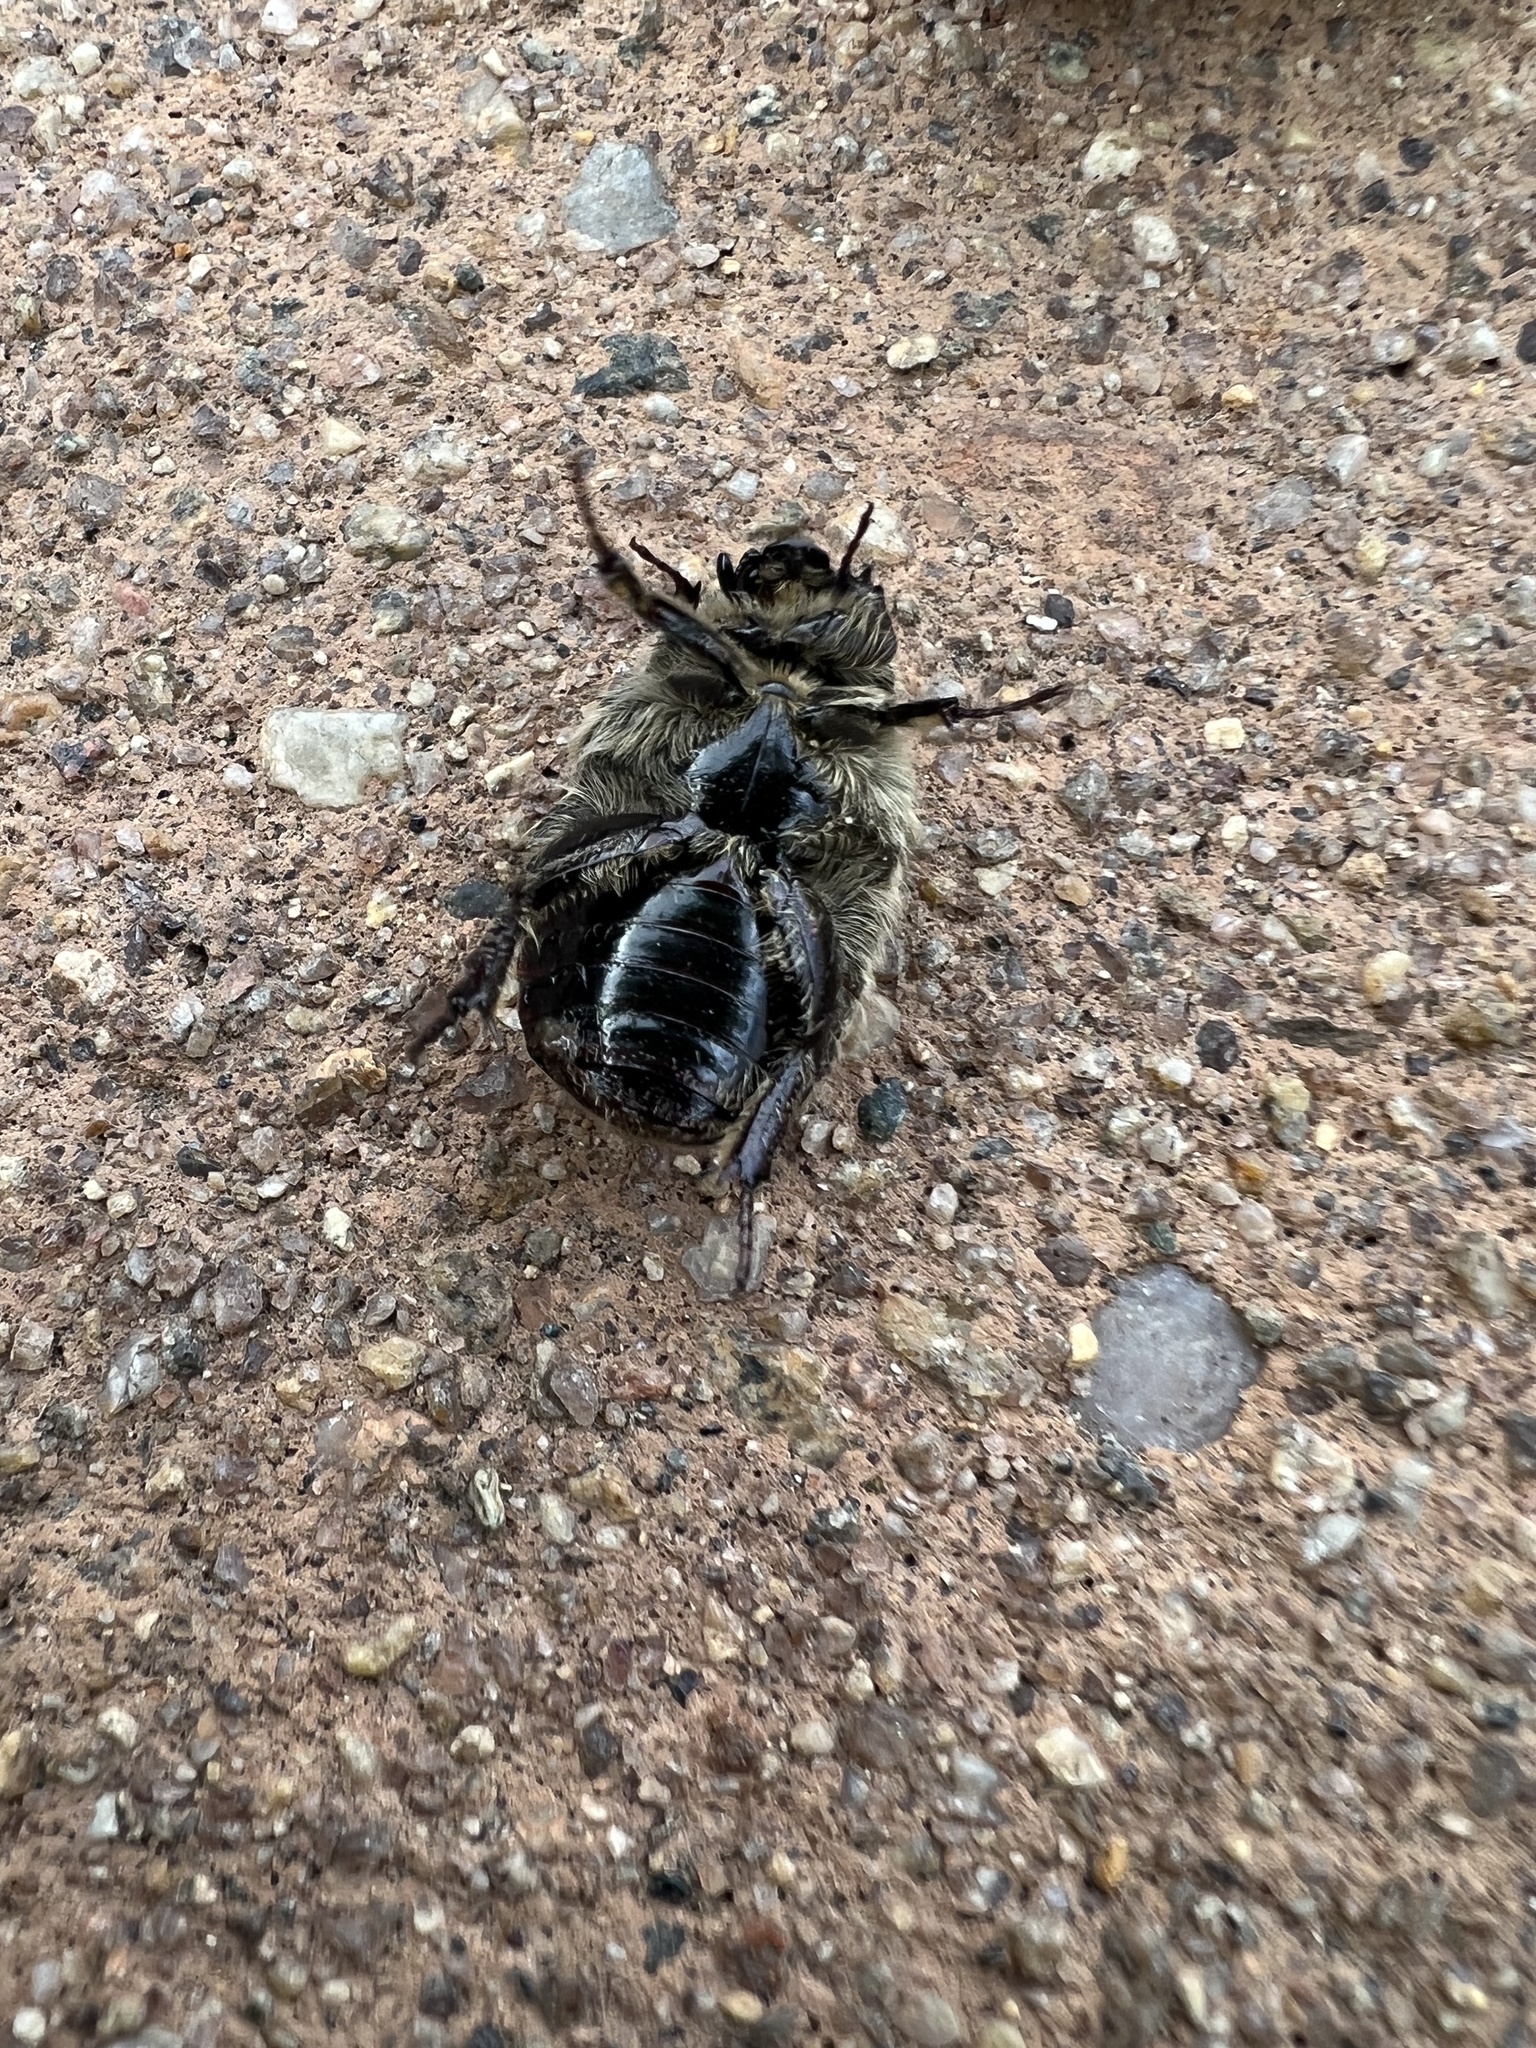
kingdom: Animalia
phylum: Arthropoda
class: Insecta
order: Coleoptera
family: Scarabaeidae
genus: Euphoria
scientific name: Euphoria inda
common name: Bumble flower beetle
